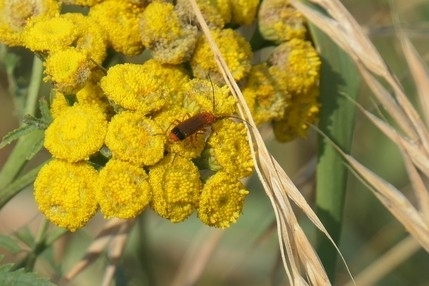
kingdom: Animalia
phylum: Arthropoda
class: Insecta
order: Coleoptera
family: Cantharidae
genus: Rhagonycha
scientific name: Rhagonycha fulva
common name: Common red soldier beetle
